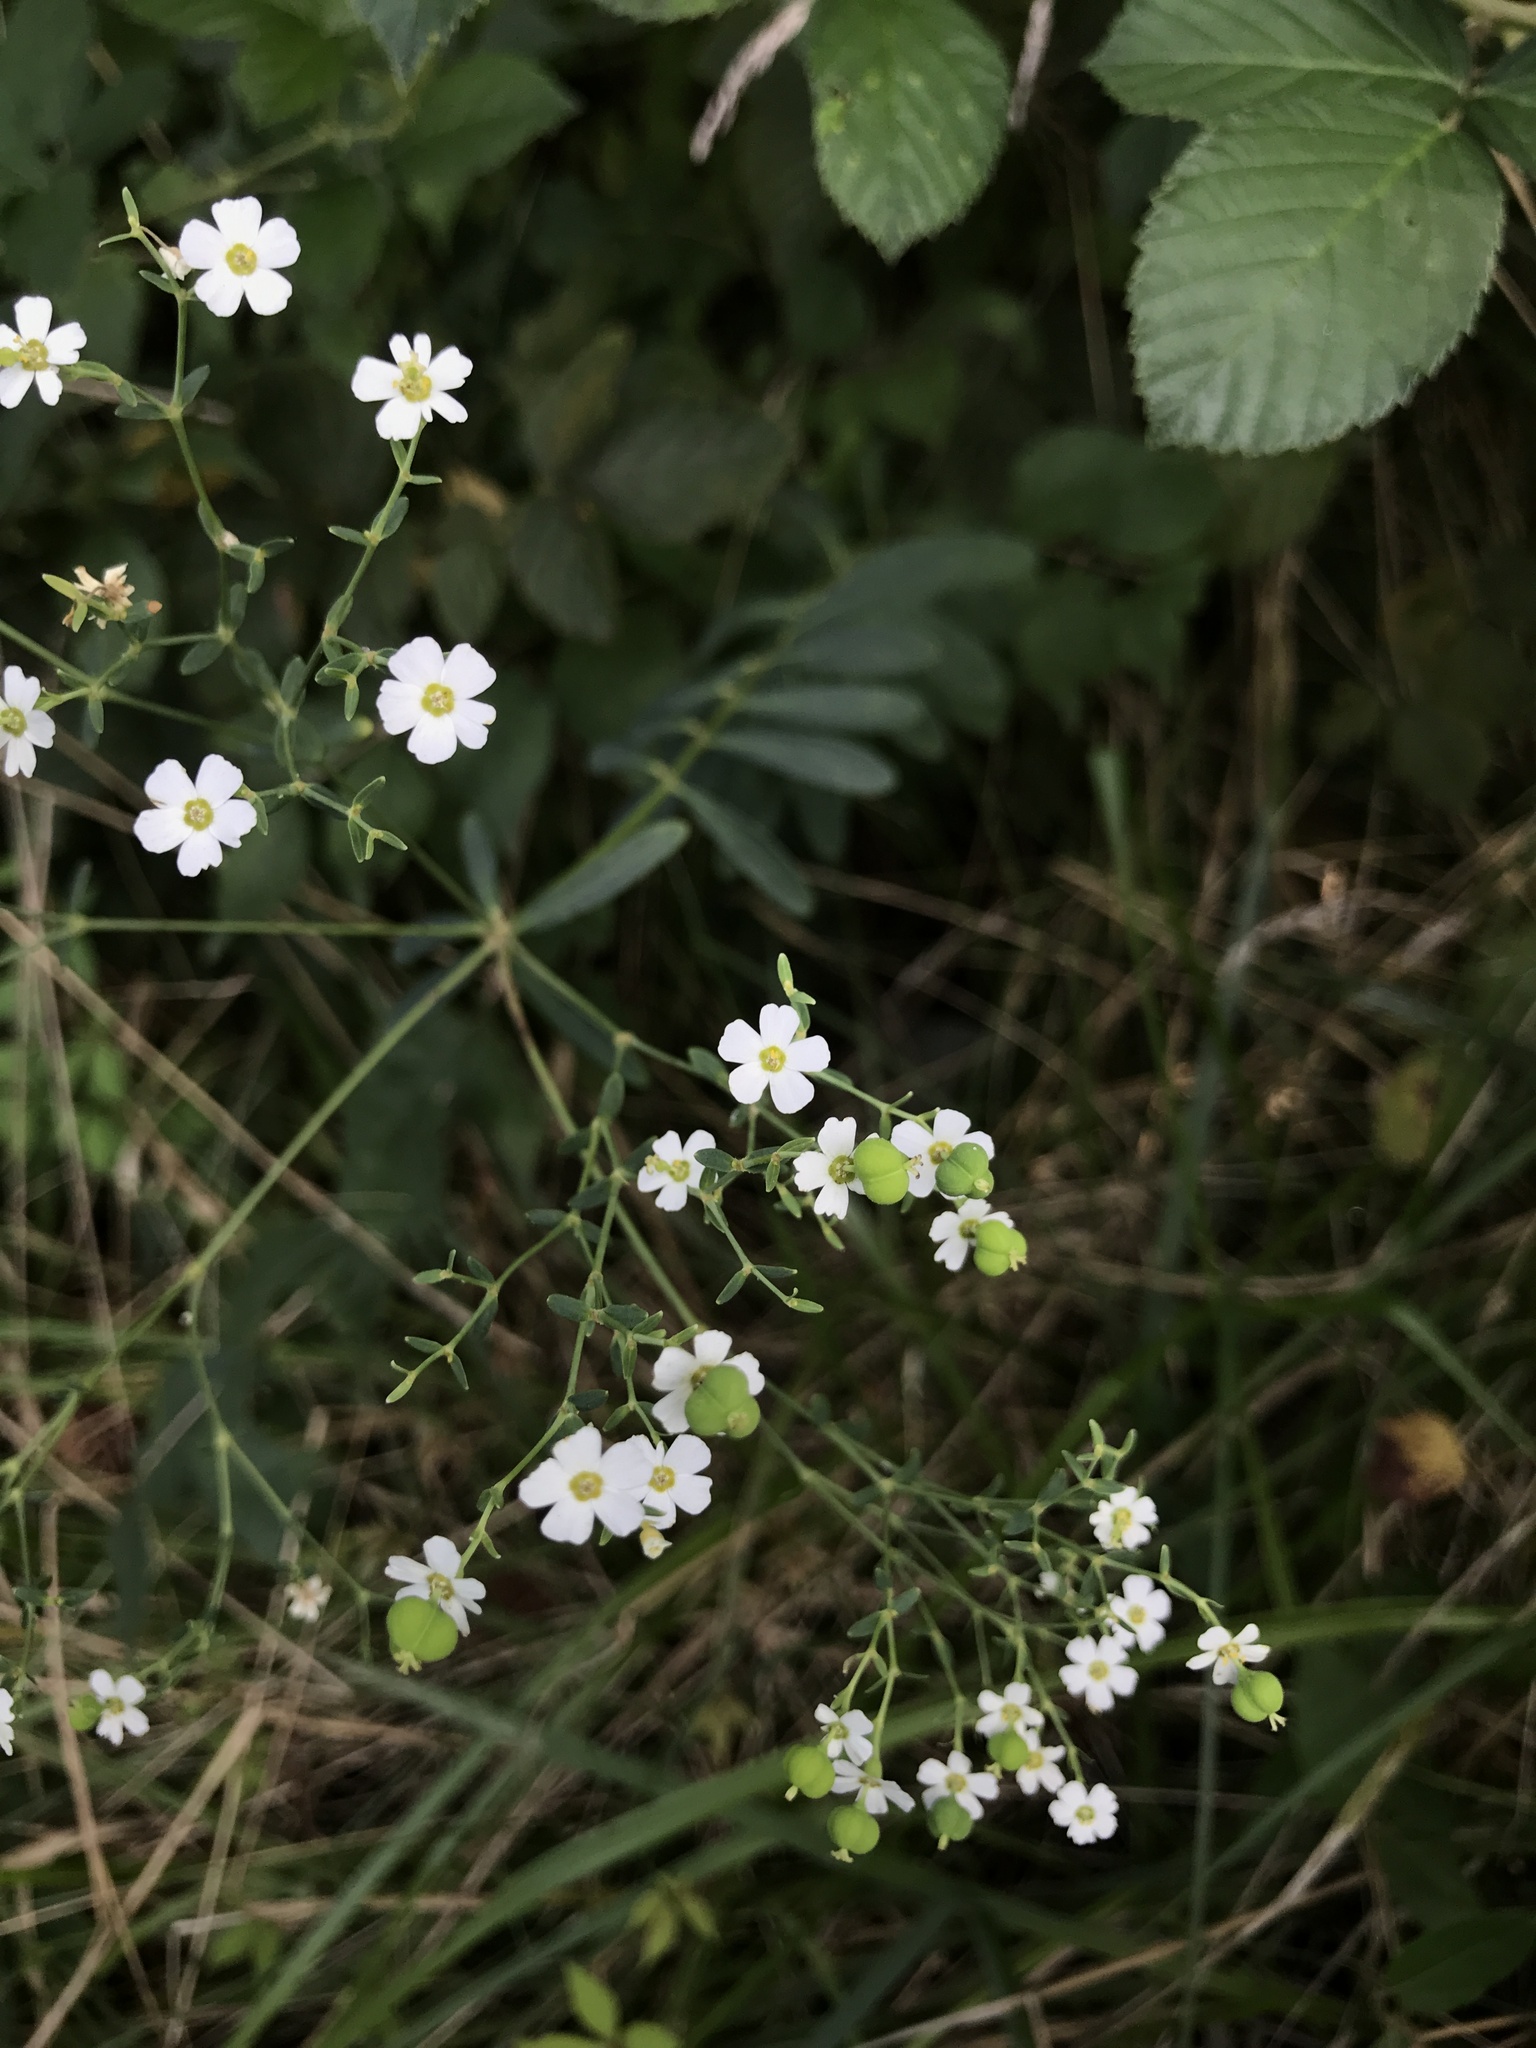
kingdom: Plantae
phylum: Tracheophyta
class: Magnoliopsida
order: Malpighiales
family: Euphorbiaceae
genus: Euphorbia
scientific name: Euphorbia corollata
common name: Flowering spurge
